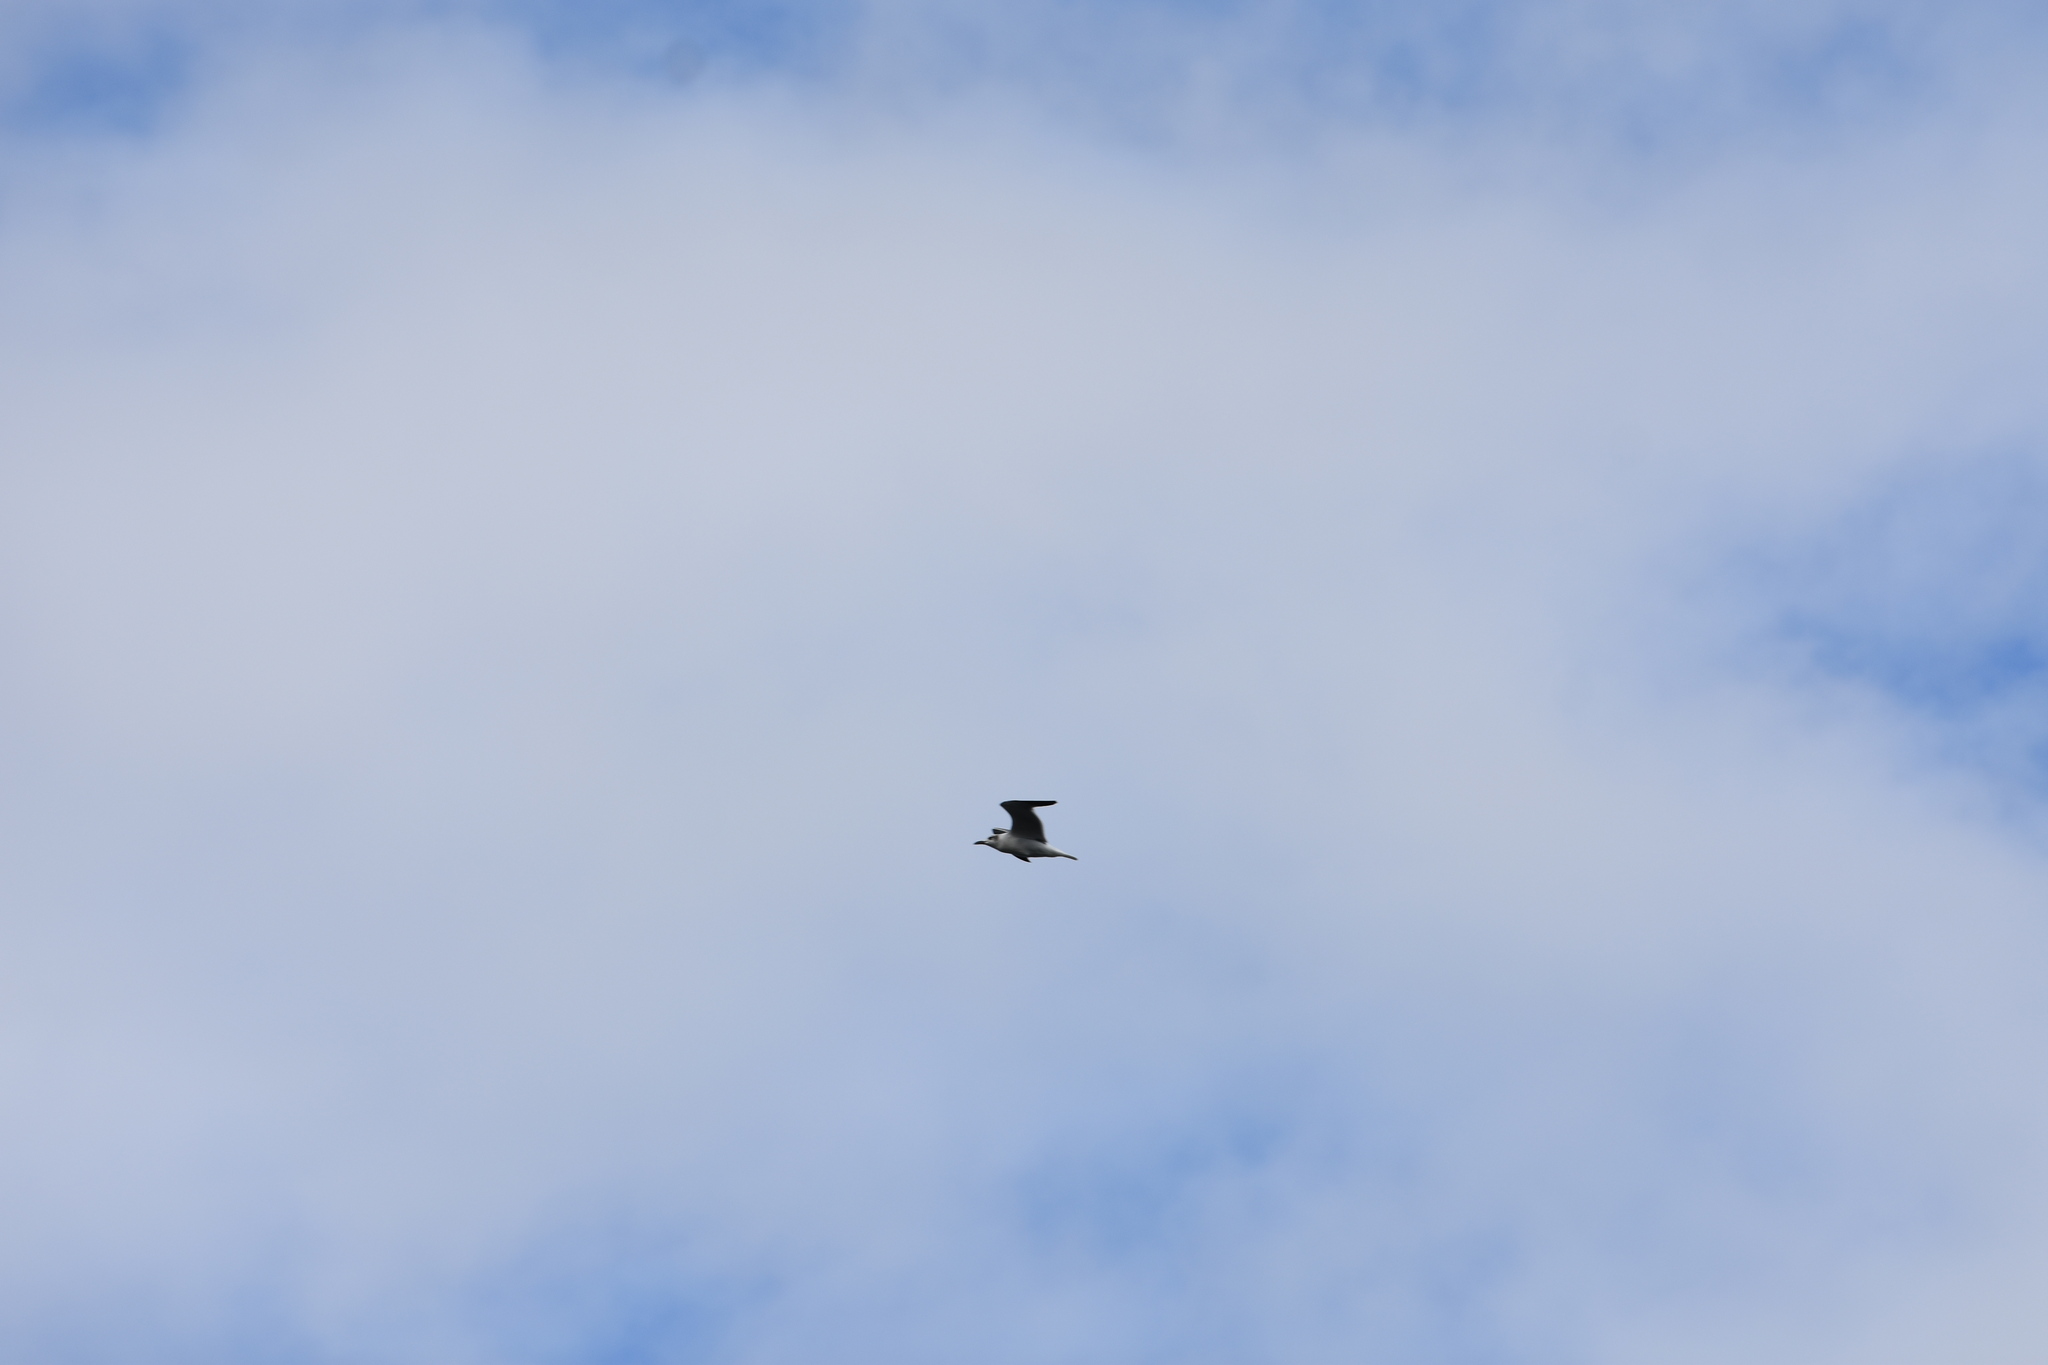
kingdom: Animalia
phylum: Chordata
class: Aves
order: Charadriiformes
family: Laridae
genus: Leucophaeus
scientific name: Leucophaeus atricilla
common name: Laughing gull
